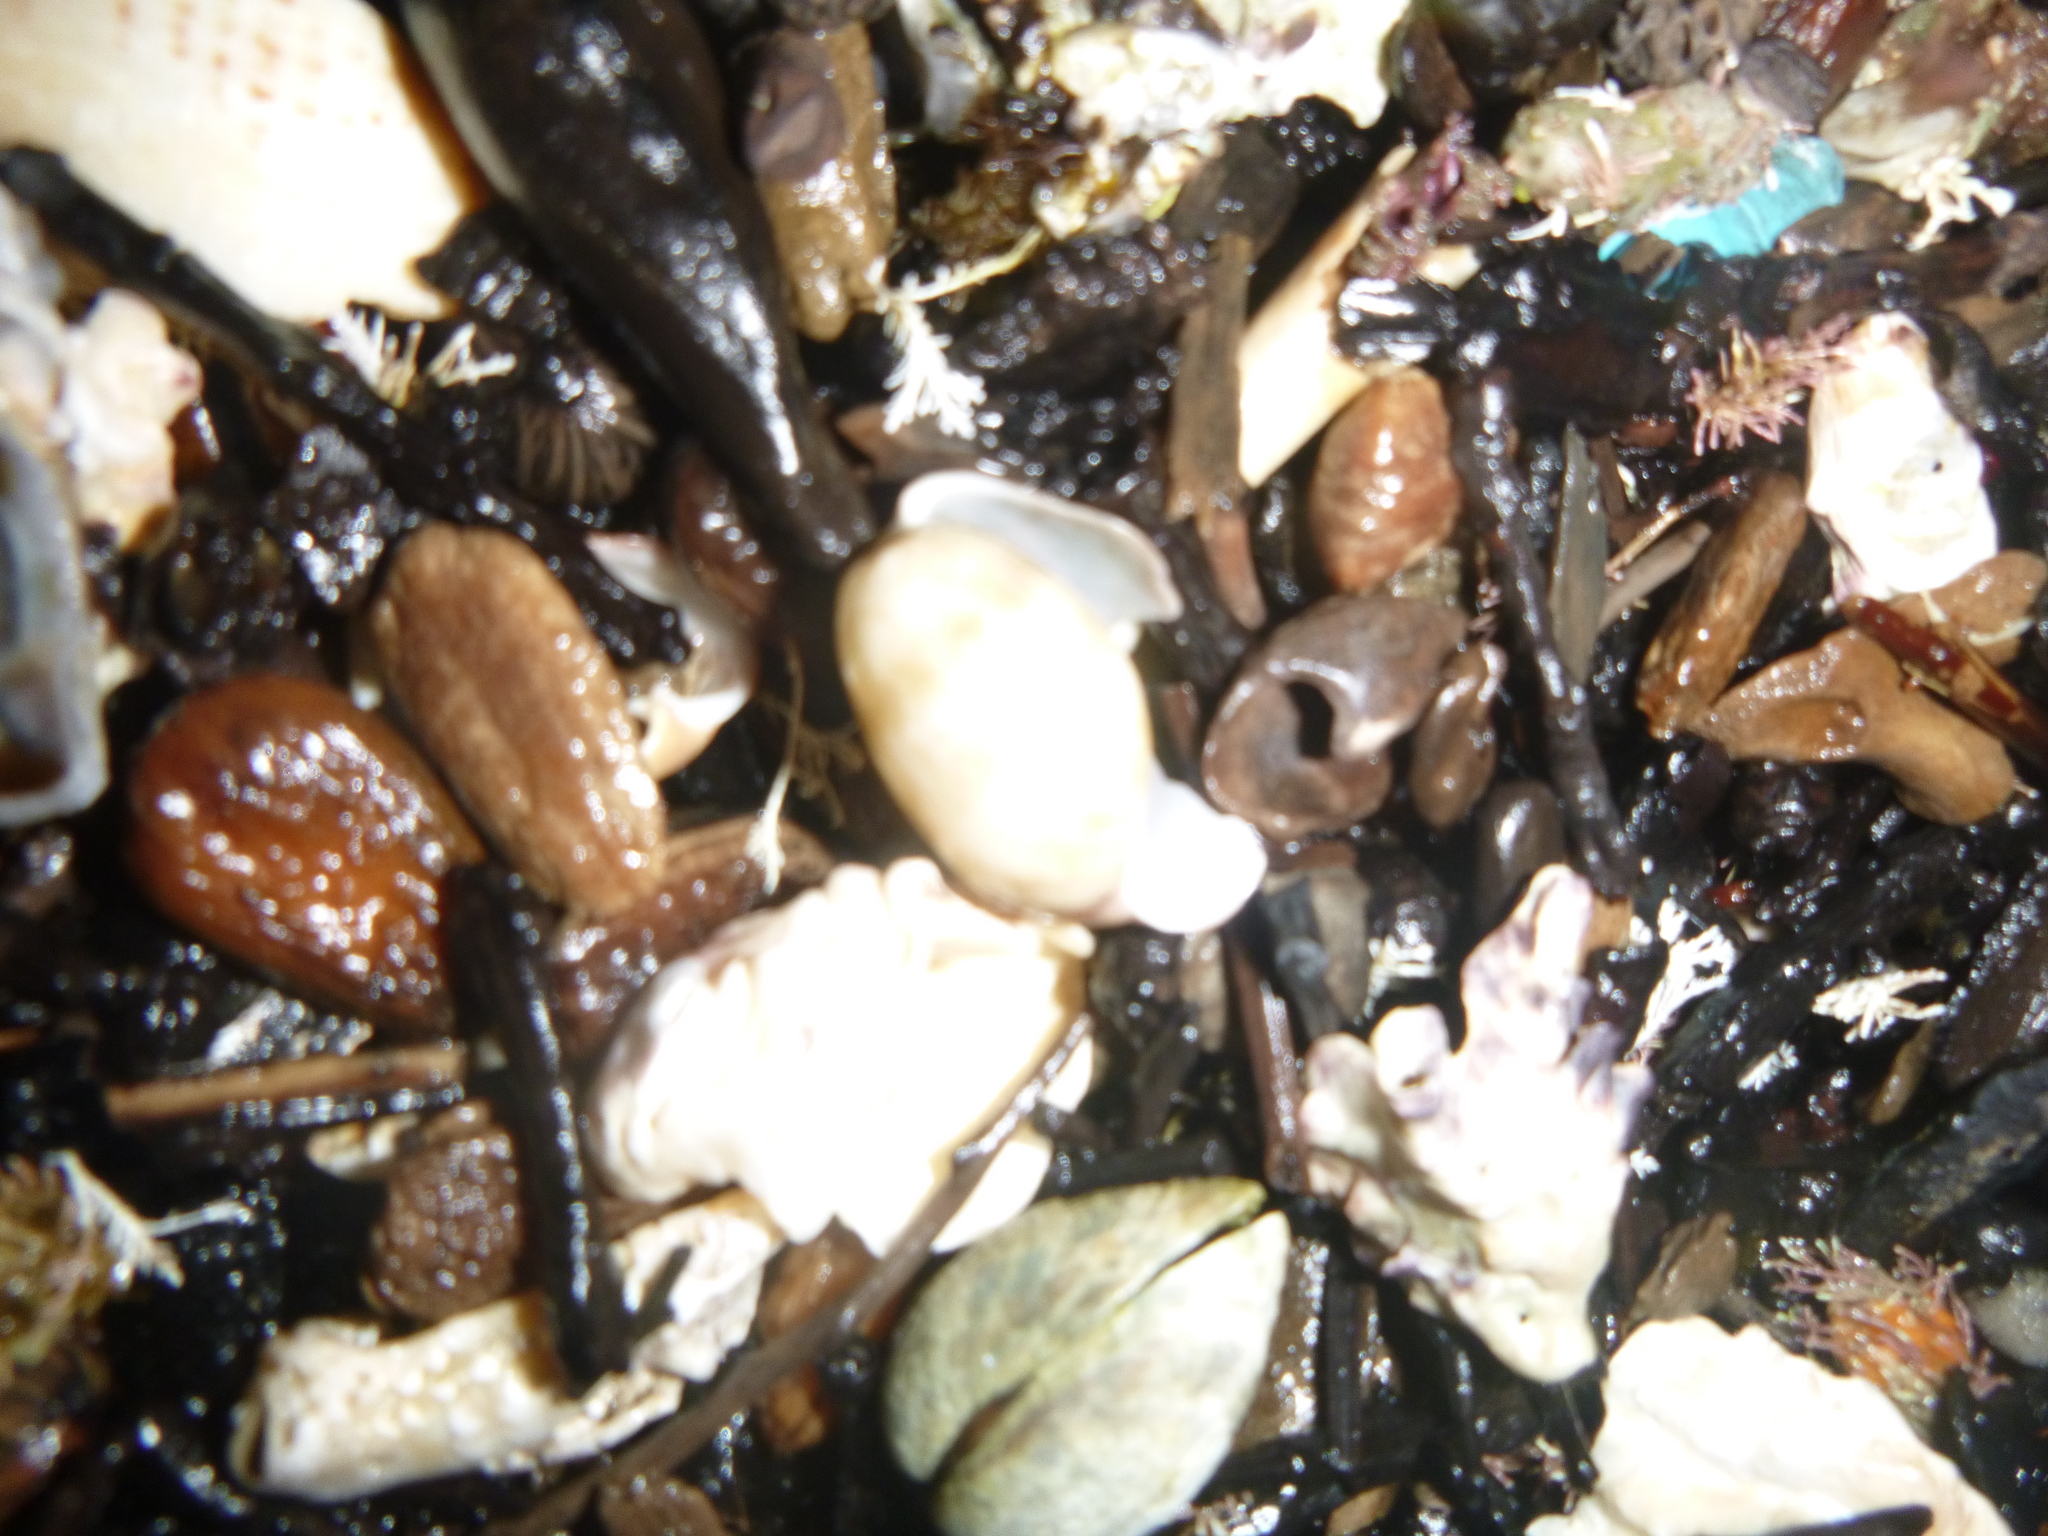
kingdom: Animalia
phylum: Mollusca
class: Gastropoda
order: Cephalaspidea
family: Bullidae
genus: Bulla
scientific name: Bulla quoyii
